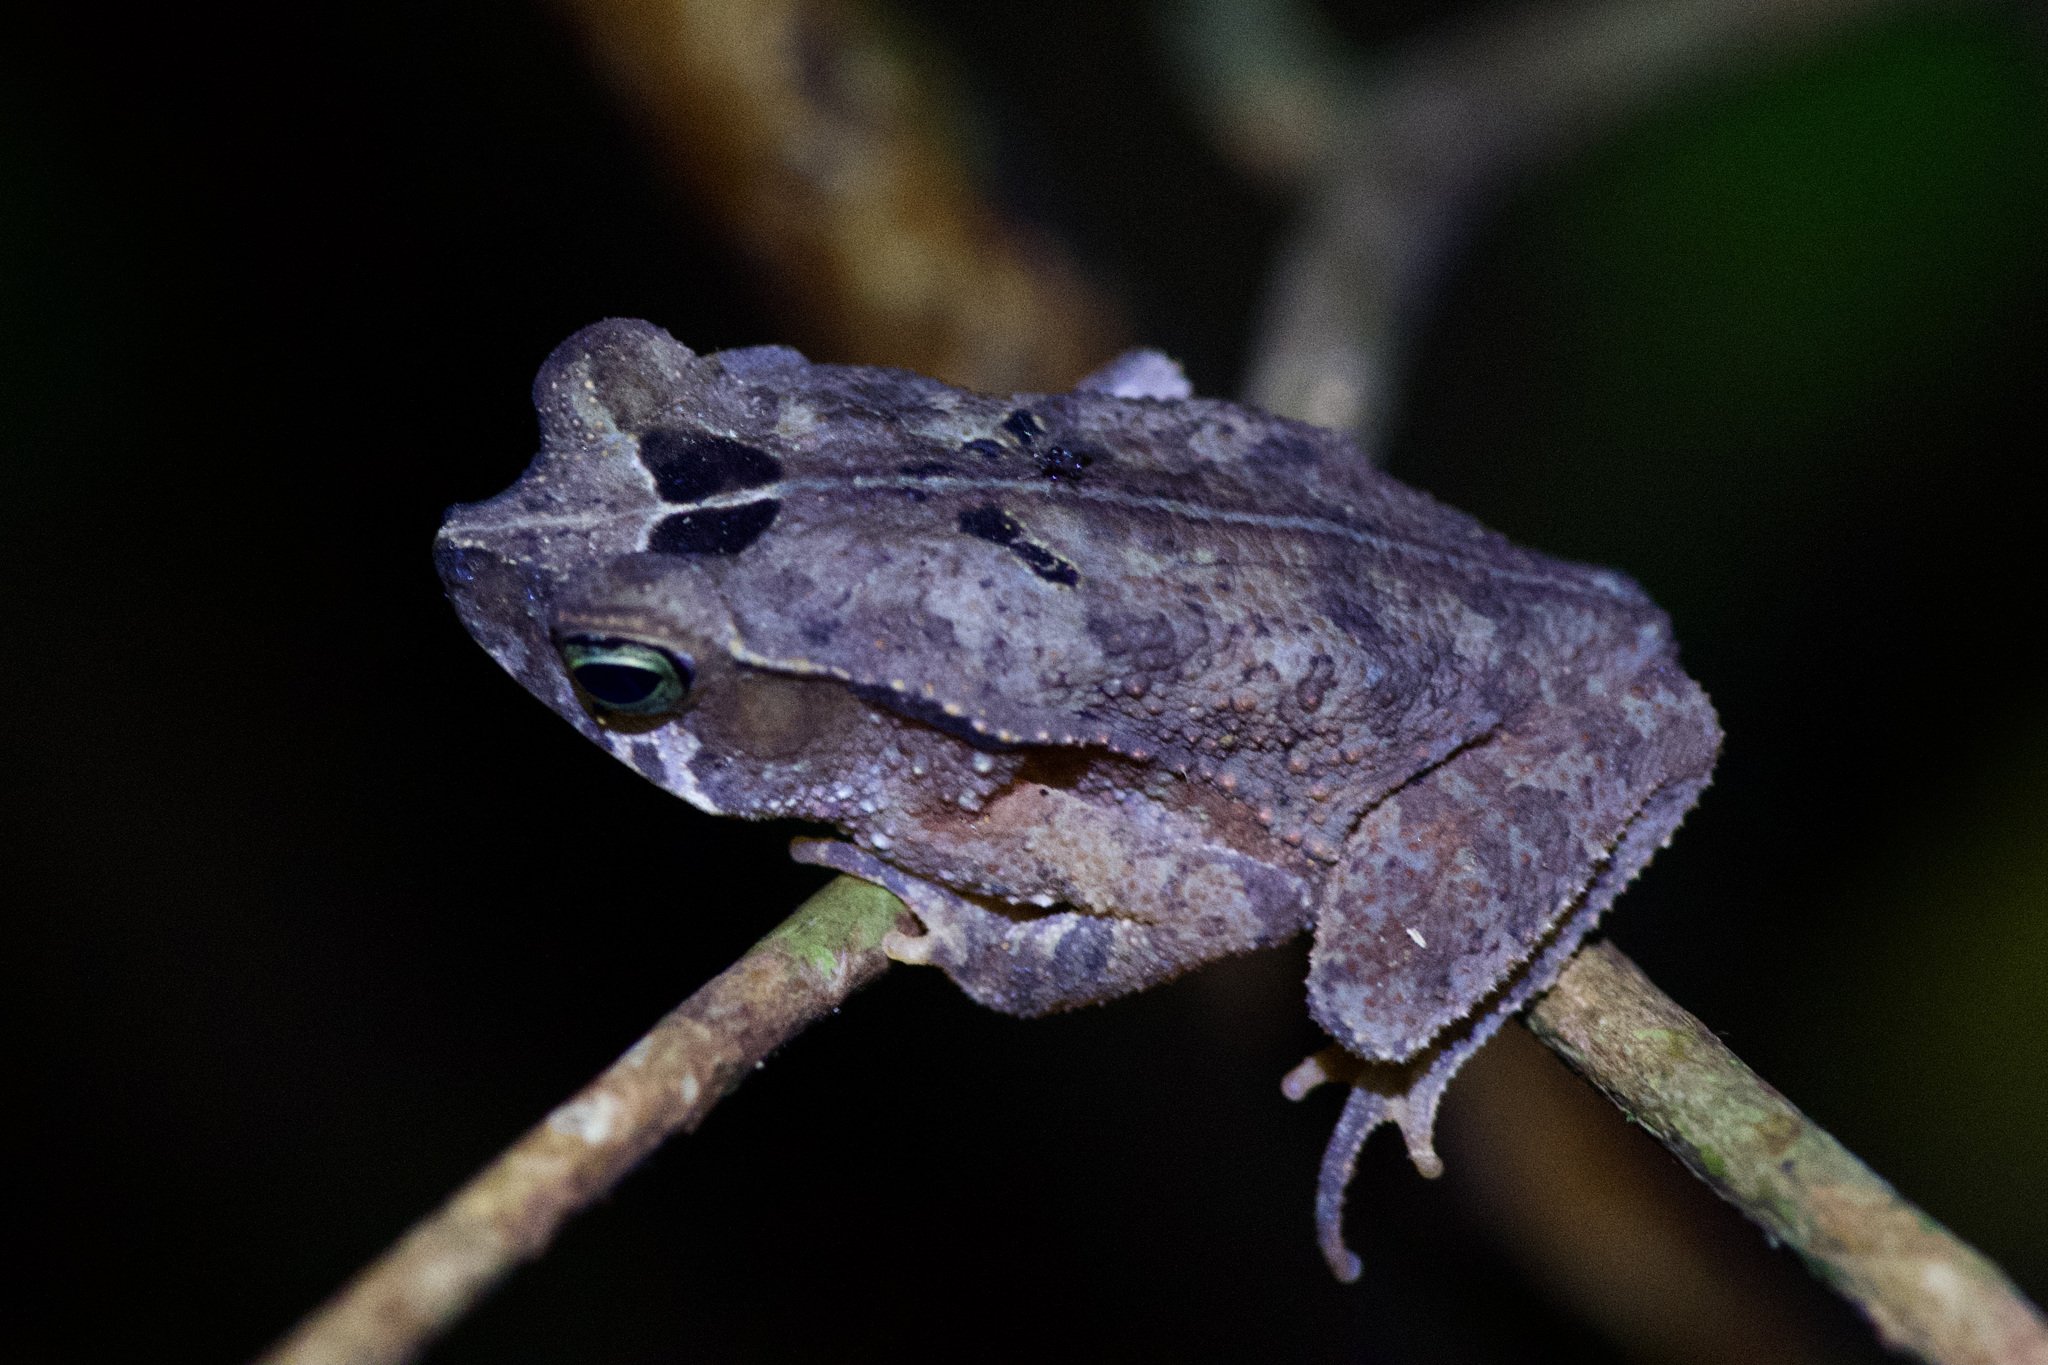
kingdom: Animalia
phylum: Chordata
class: Amphibia
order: Anura
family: Bufonidae
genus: Rhinella
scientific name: Rhinella alata
